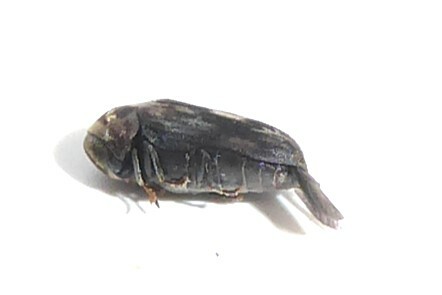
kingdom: Animalia
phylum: Arthropoda
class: Insecta
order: Coleoptera
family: Ptinidae
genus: Leanobium
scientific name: Leanobium
